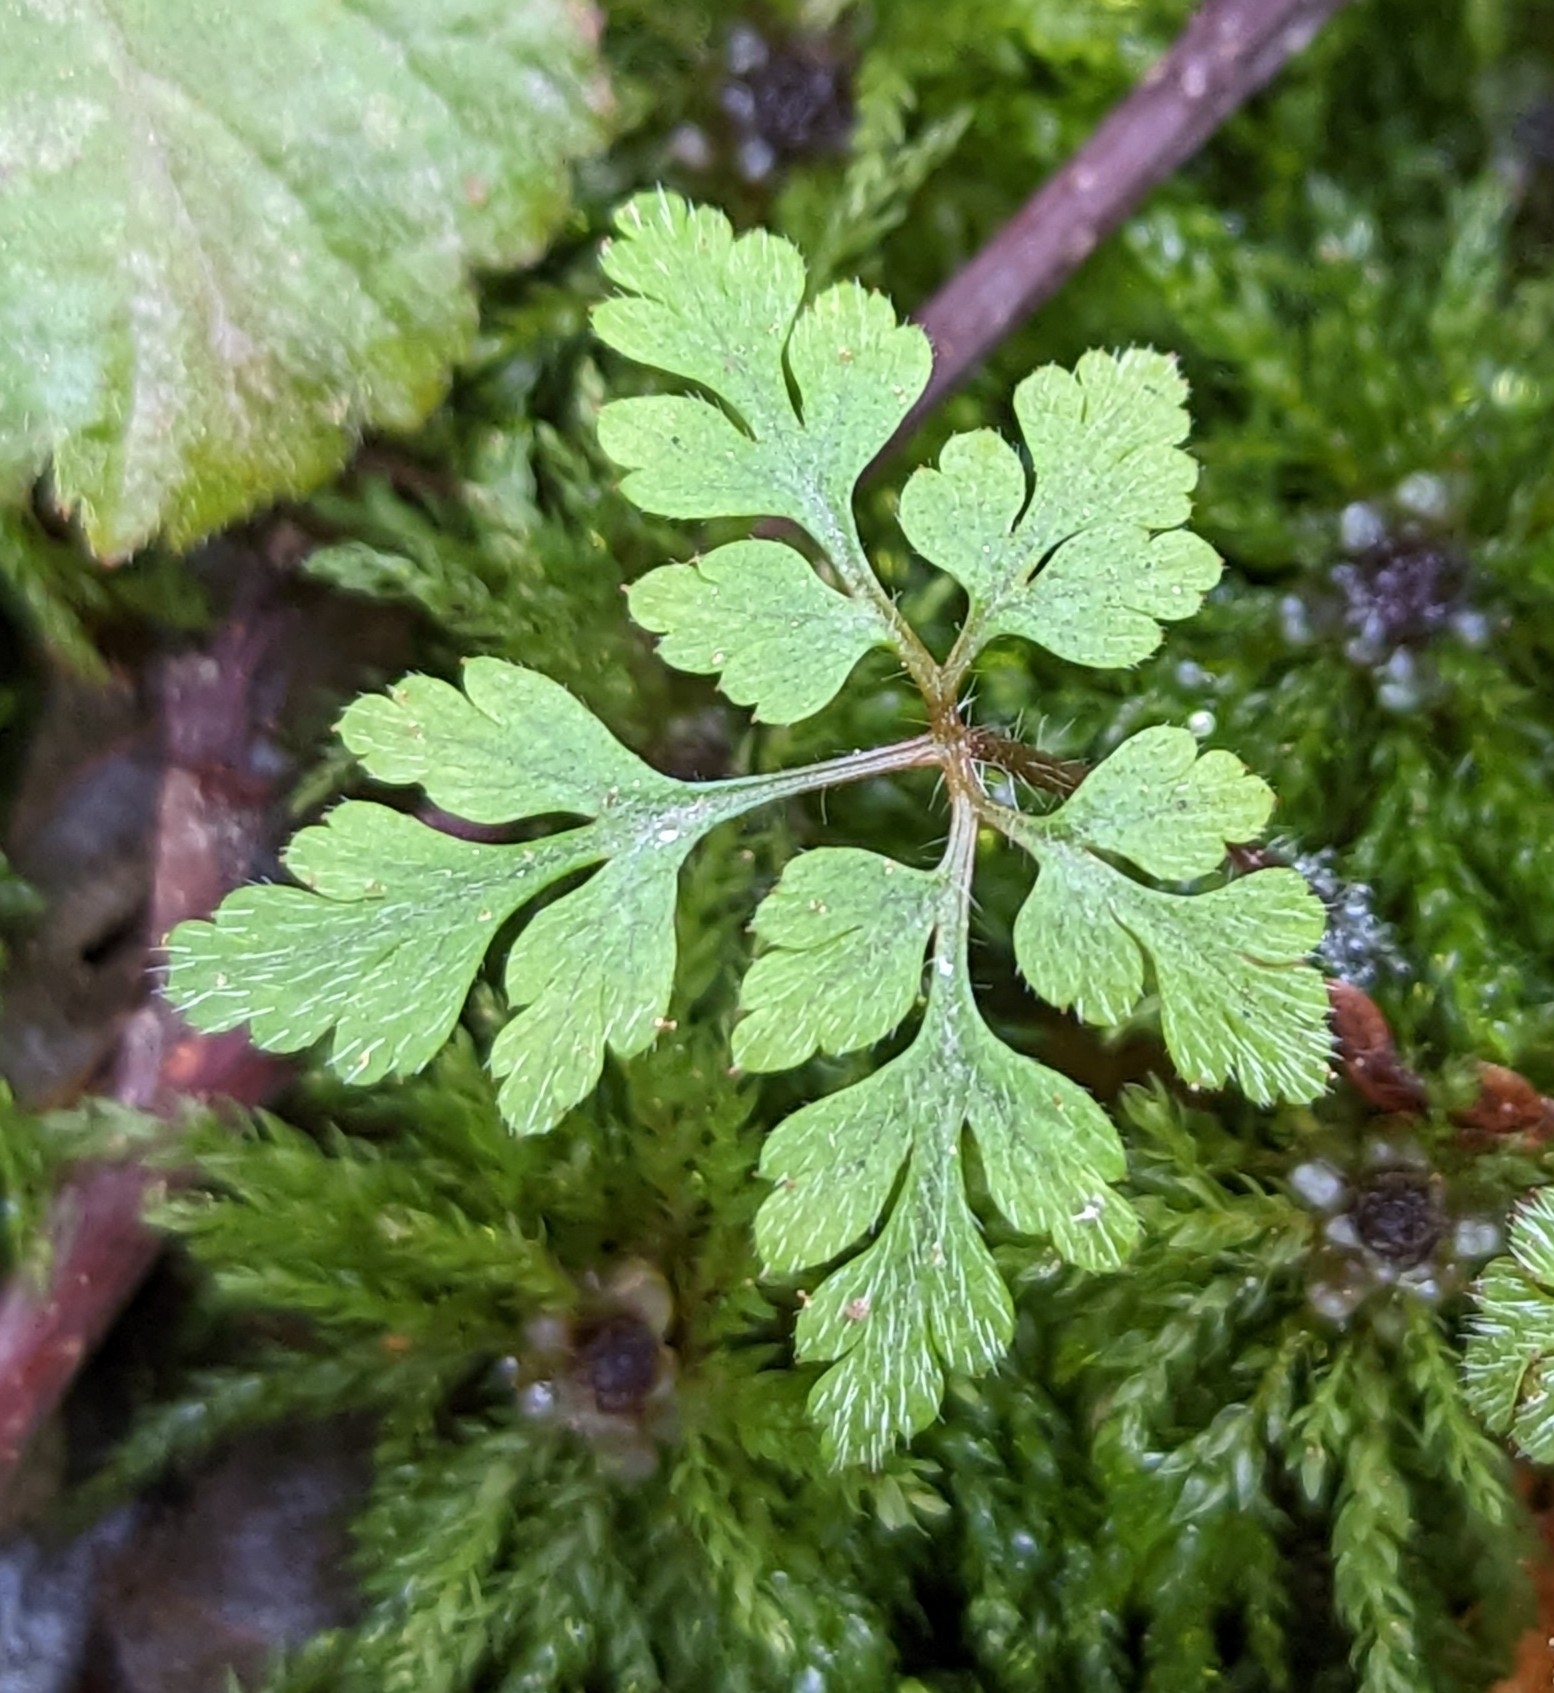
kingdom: Plantae
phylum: Tracheophyta
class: Magnoliopsida
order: Geraniales
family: Geraniaceae
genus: Geranium
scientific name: Geranium robertianum
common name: Herb-robert
